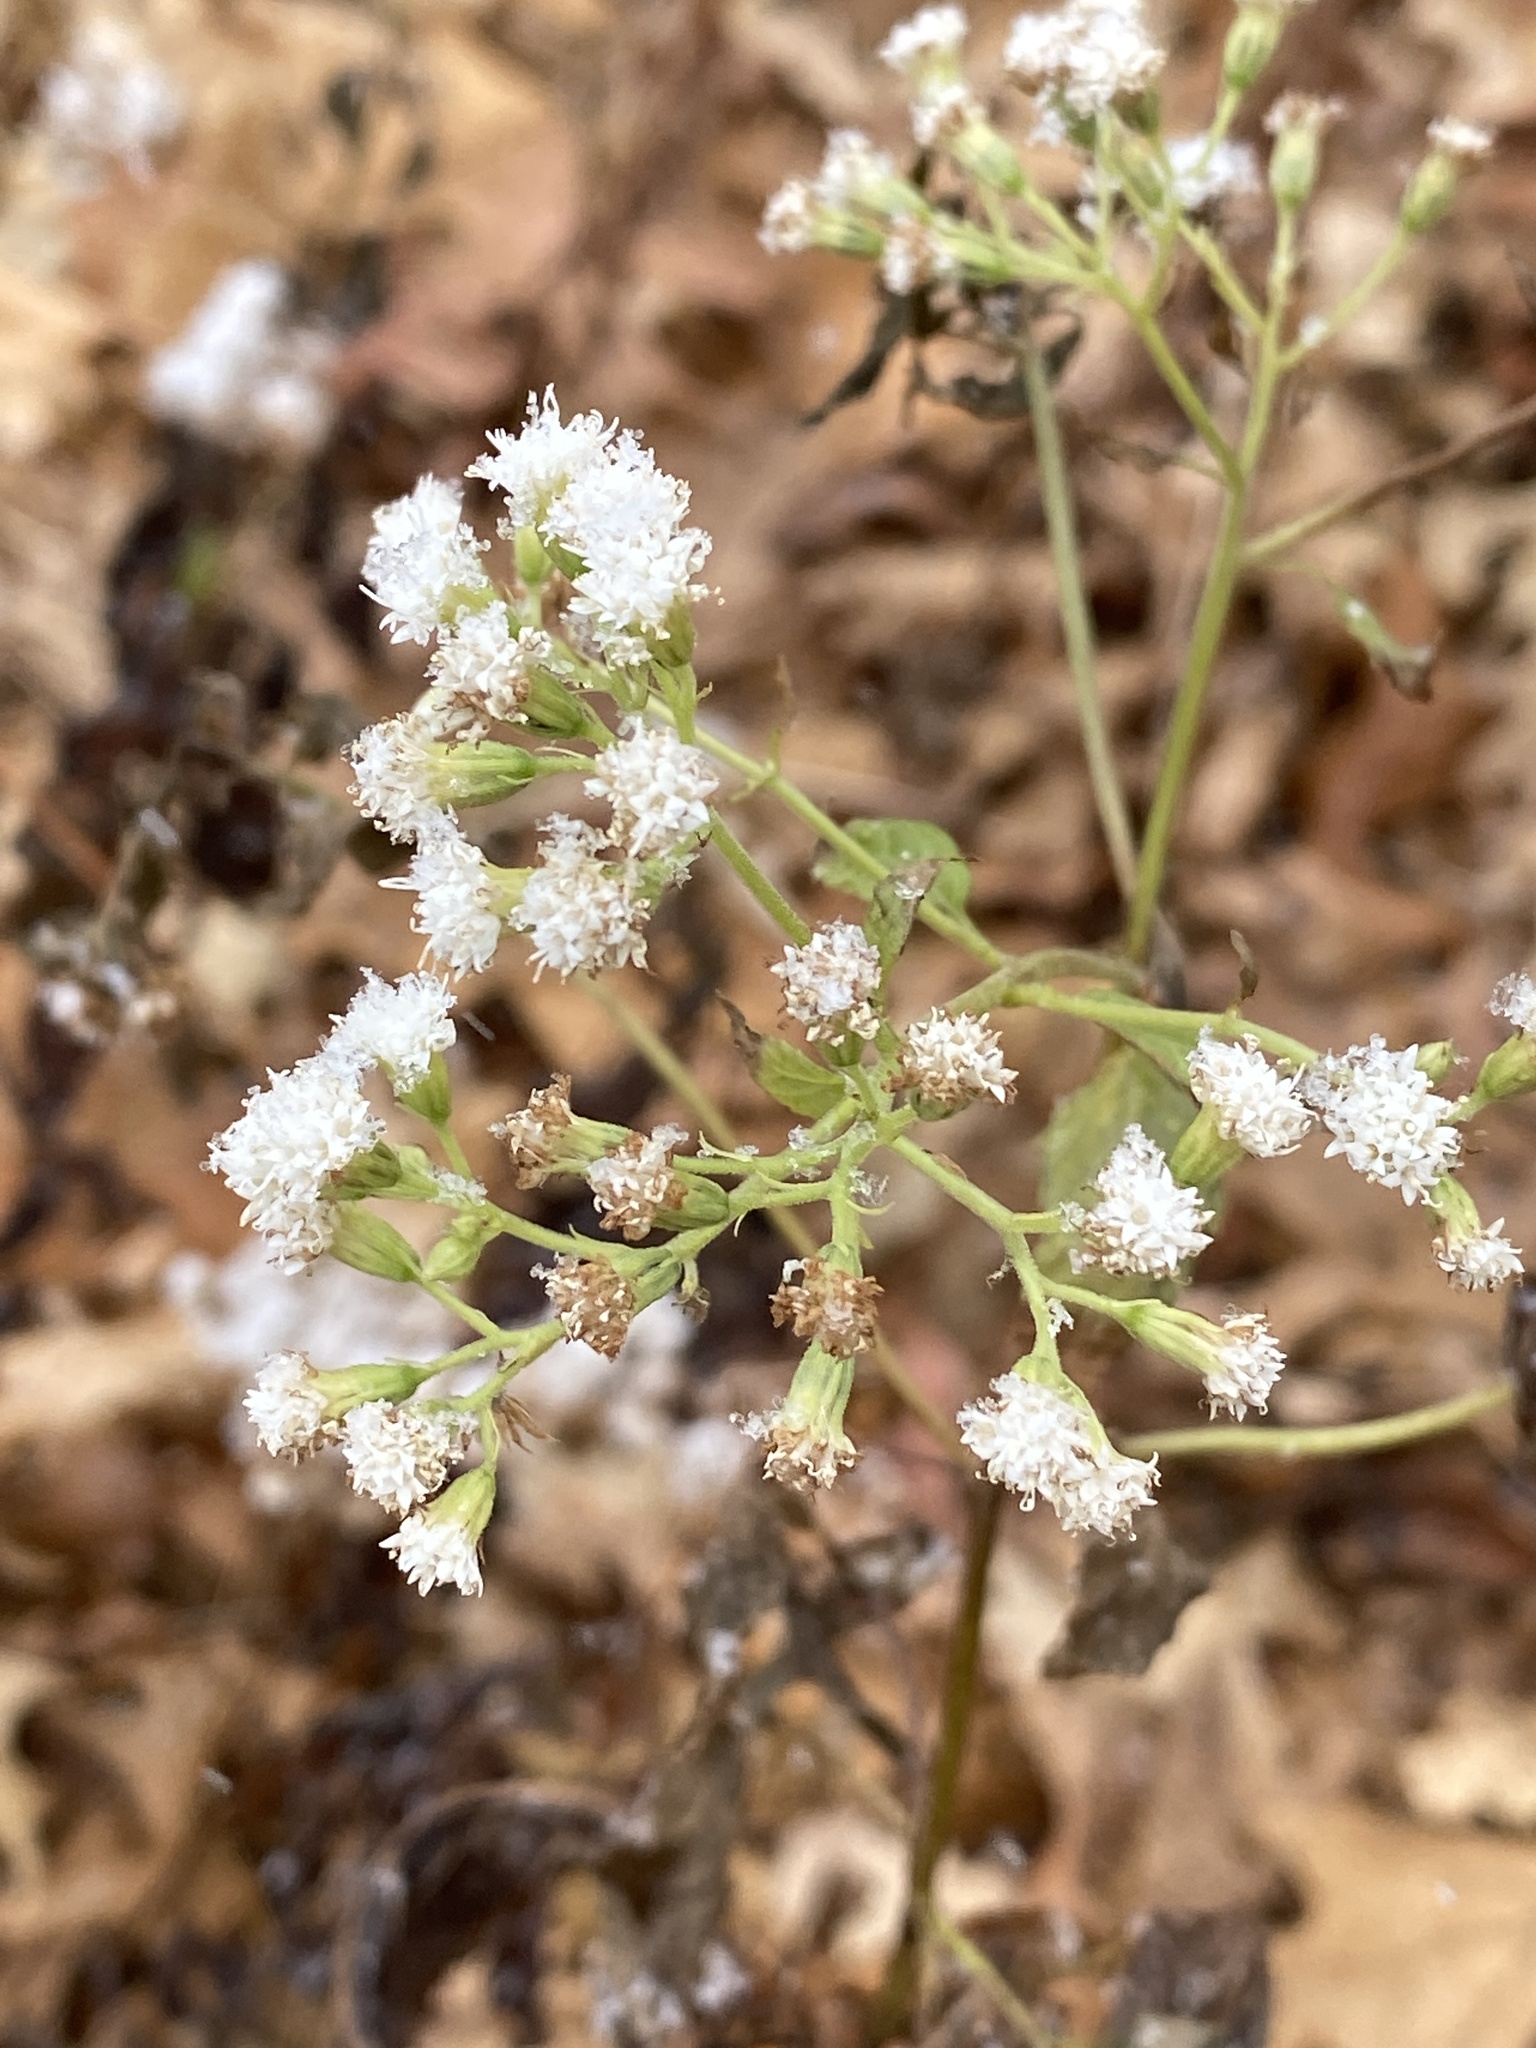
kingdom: Plantae
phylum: Tracheophyta
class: Magnoliopsida
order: Asterales
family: Asteraceae
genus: Ageratina
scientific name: Ageratina altissima
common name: White snakeroot
